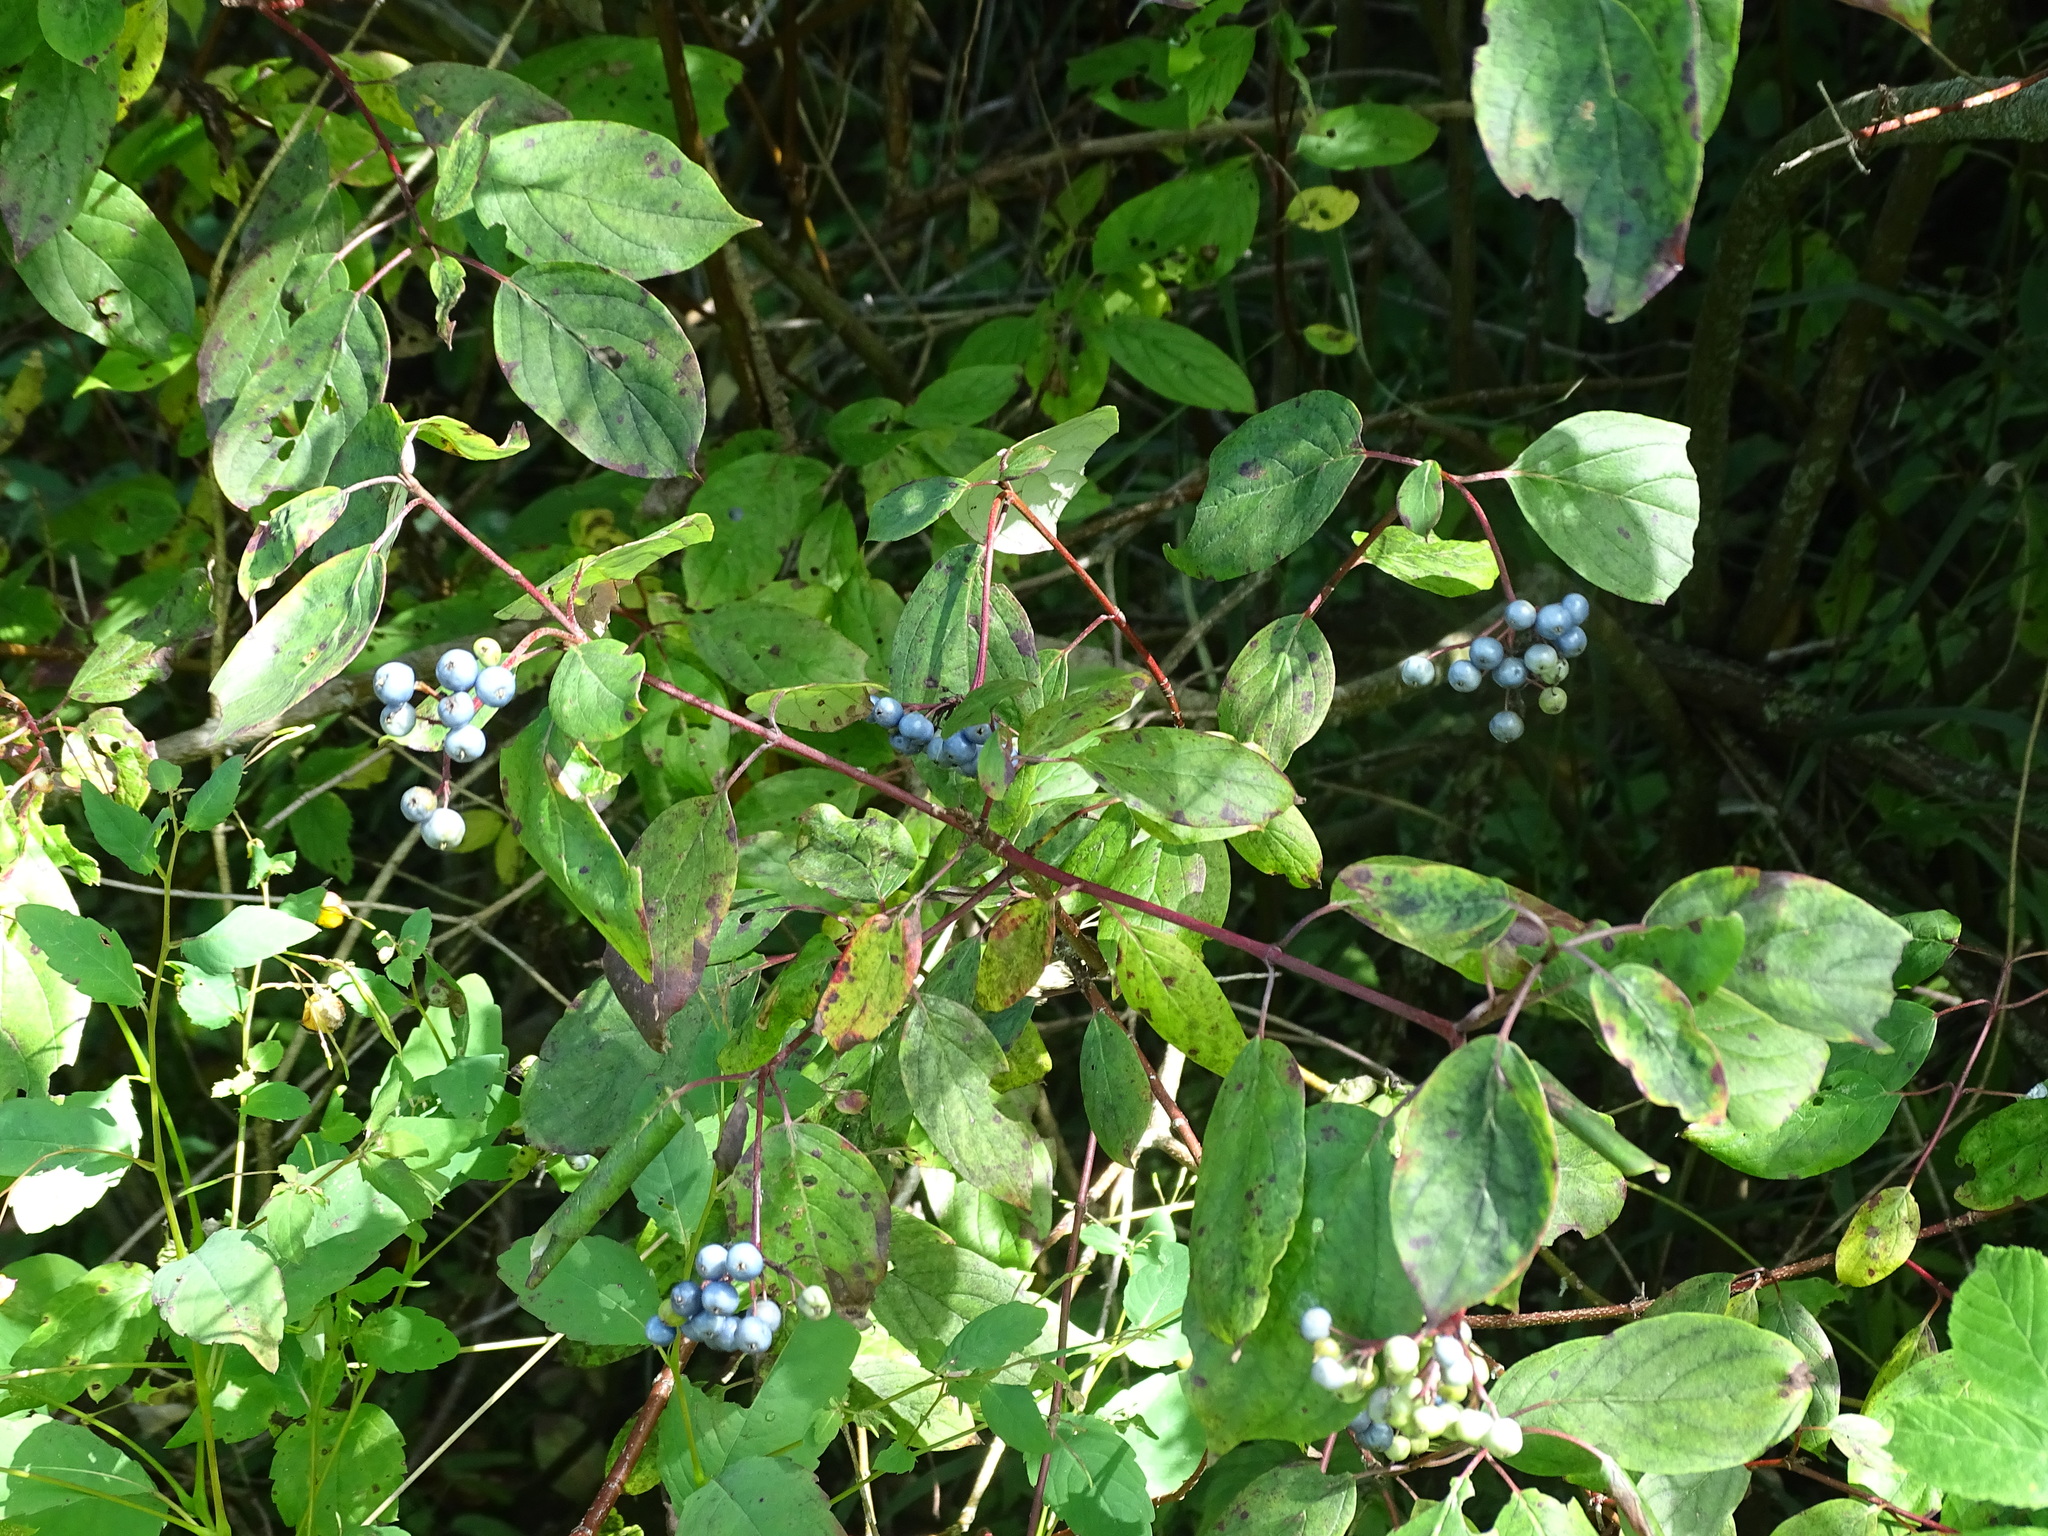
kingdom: Plantae
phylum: Tracheophyta
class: Magnoliopsida
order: Cornales
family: Cornaceae
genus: Cornus
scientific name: Cornus amomum
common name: Silky dogwood
